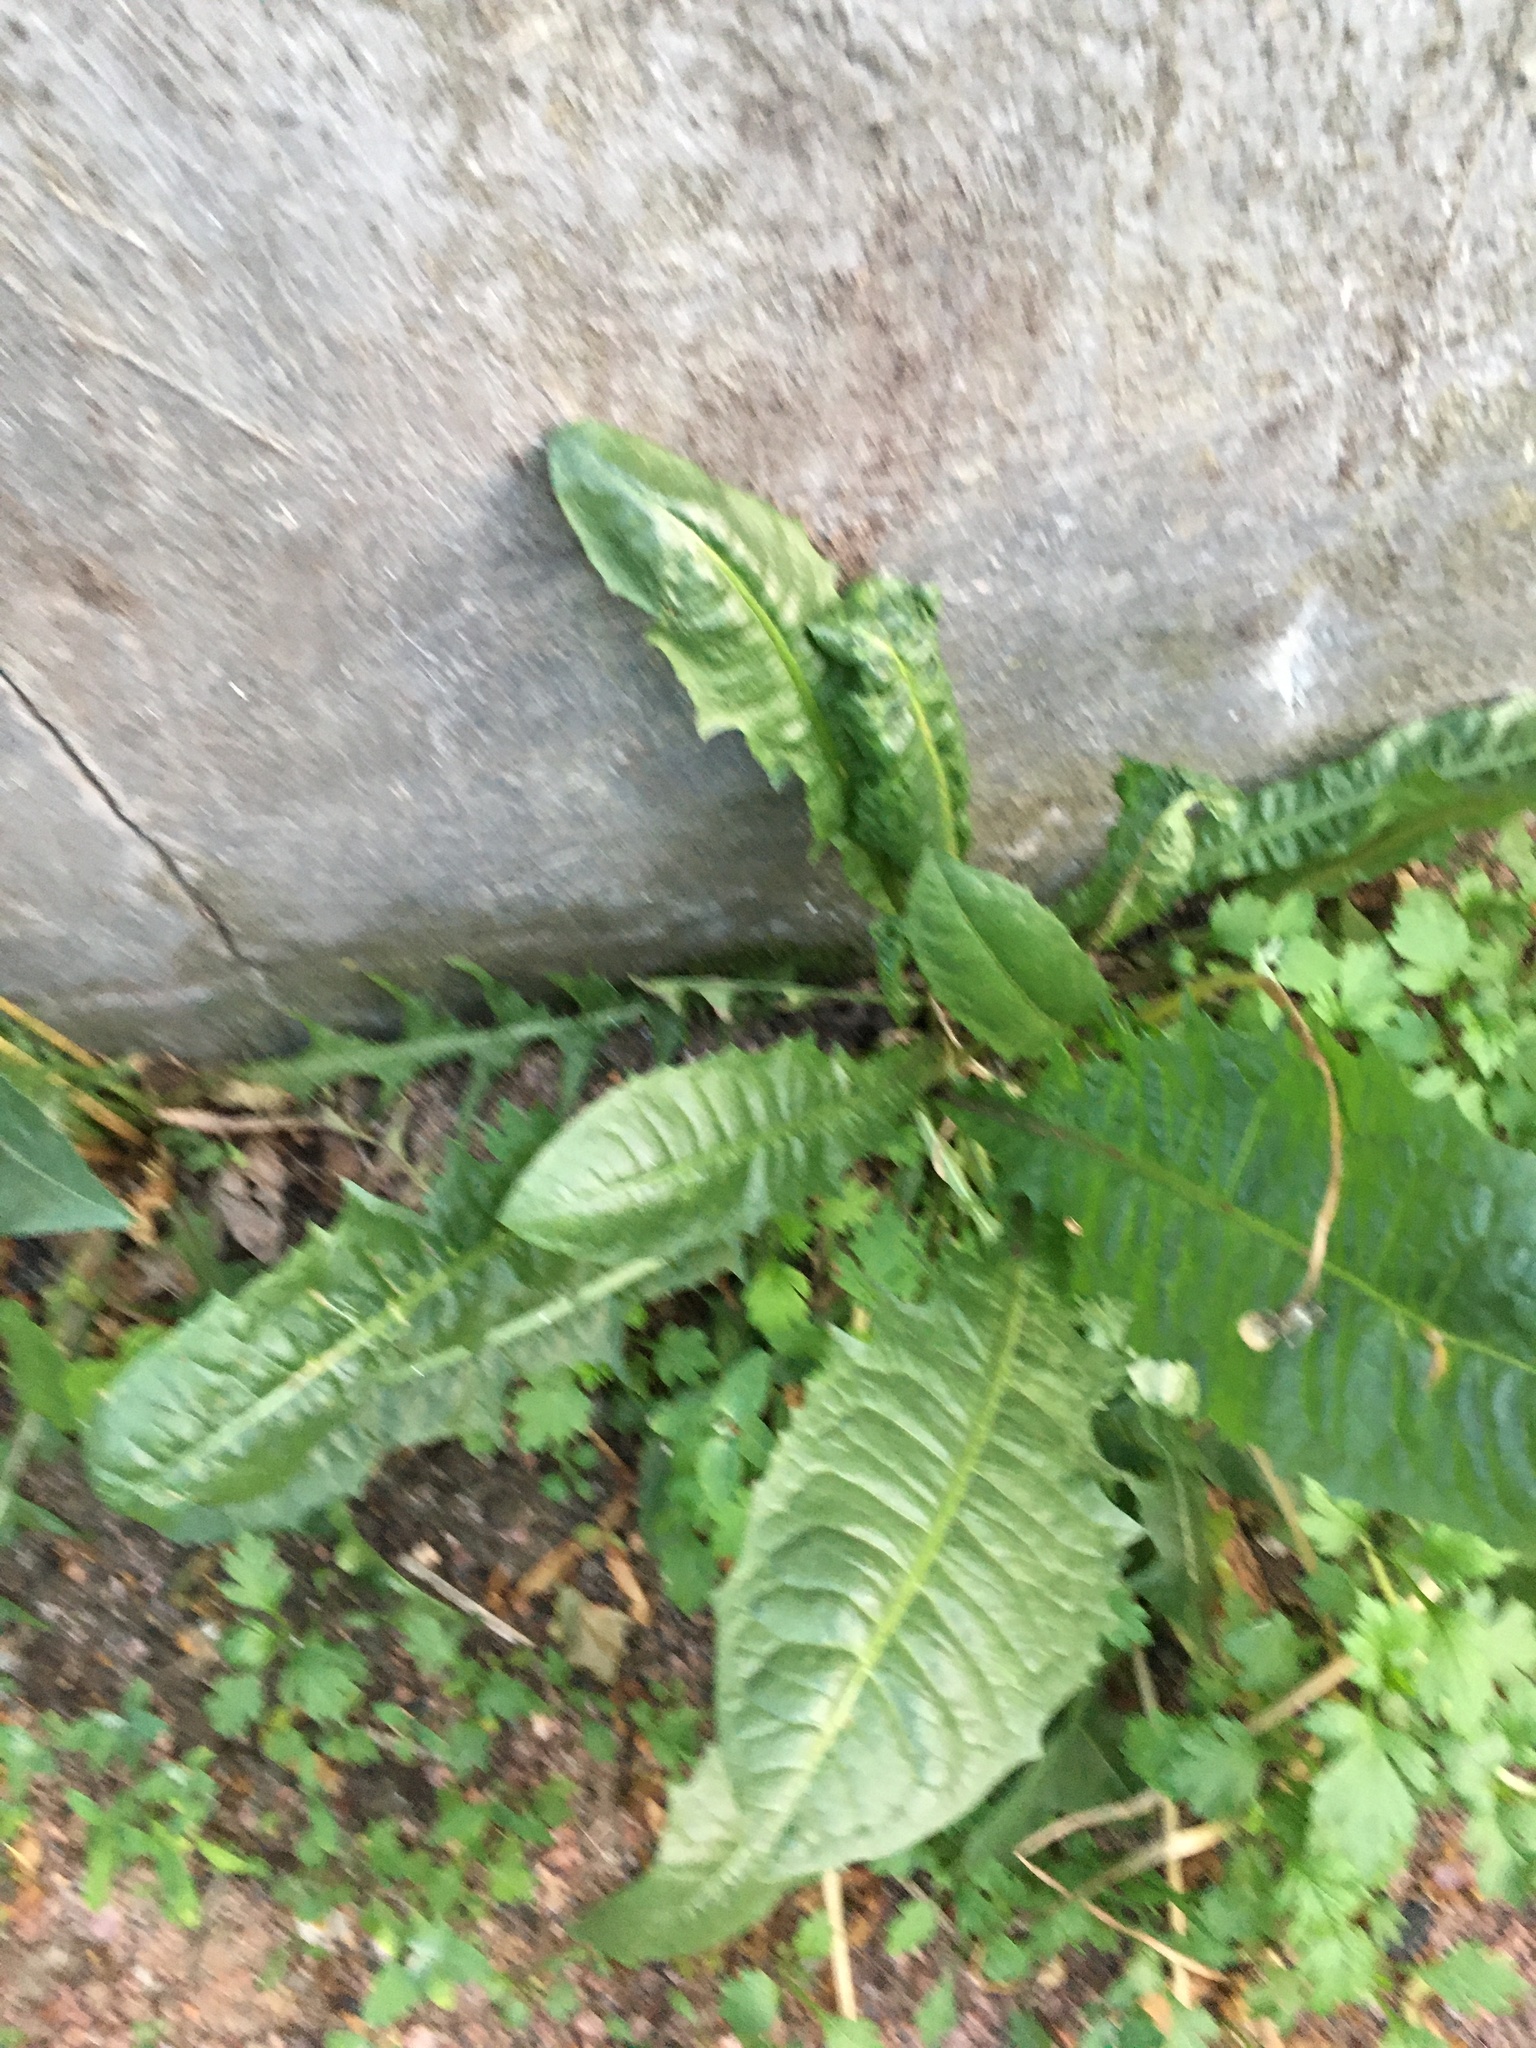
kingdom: Plantae
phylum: Tracheophyta
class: Magnoliopsida
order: Asterales
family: Asteraceae
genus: Taraxacum
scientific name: Taraxacum officinale
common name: Common dandelion
